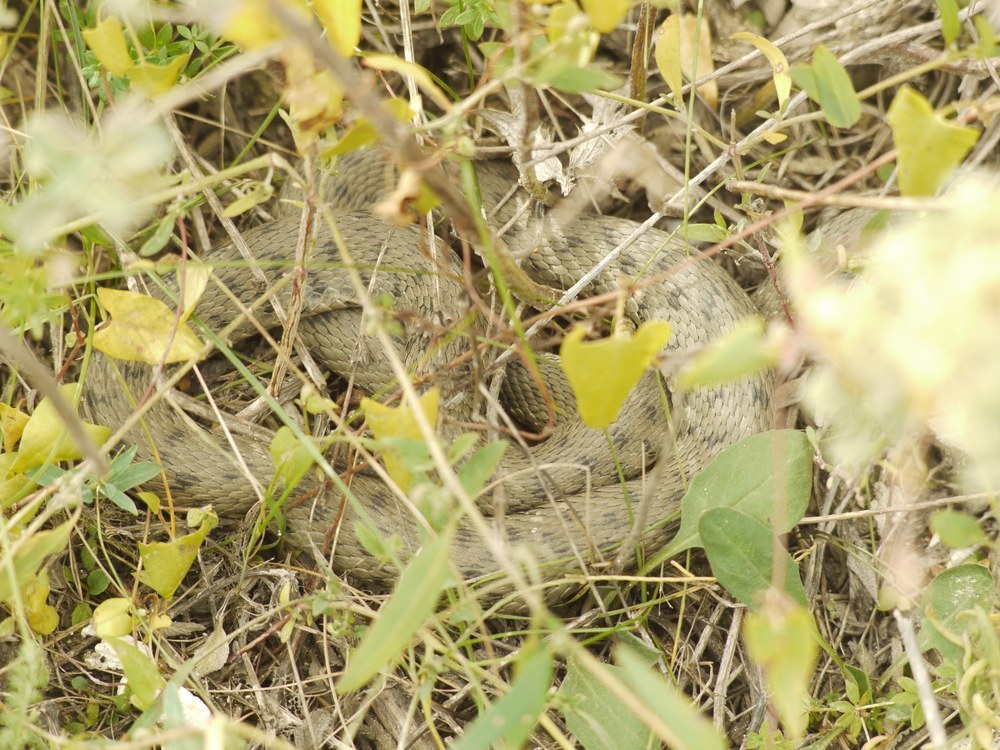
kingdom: Animalia
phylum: Chordata
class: Squamata
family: Colubridae
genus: Natrix
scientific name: Natrix tessellata
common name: Dice snake
